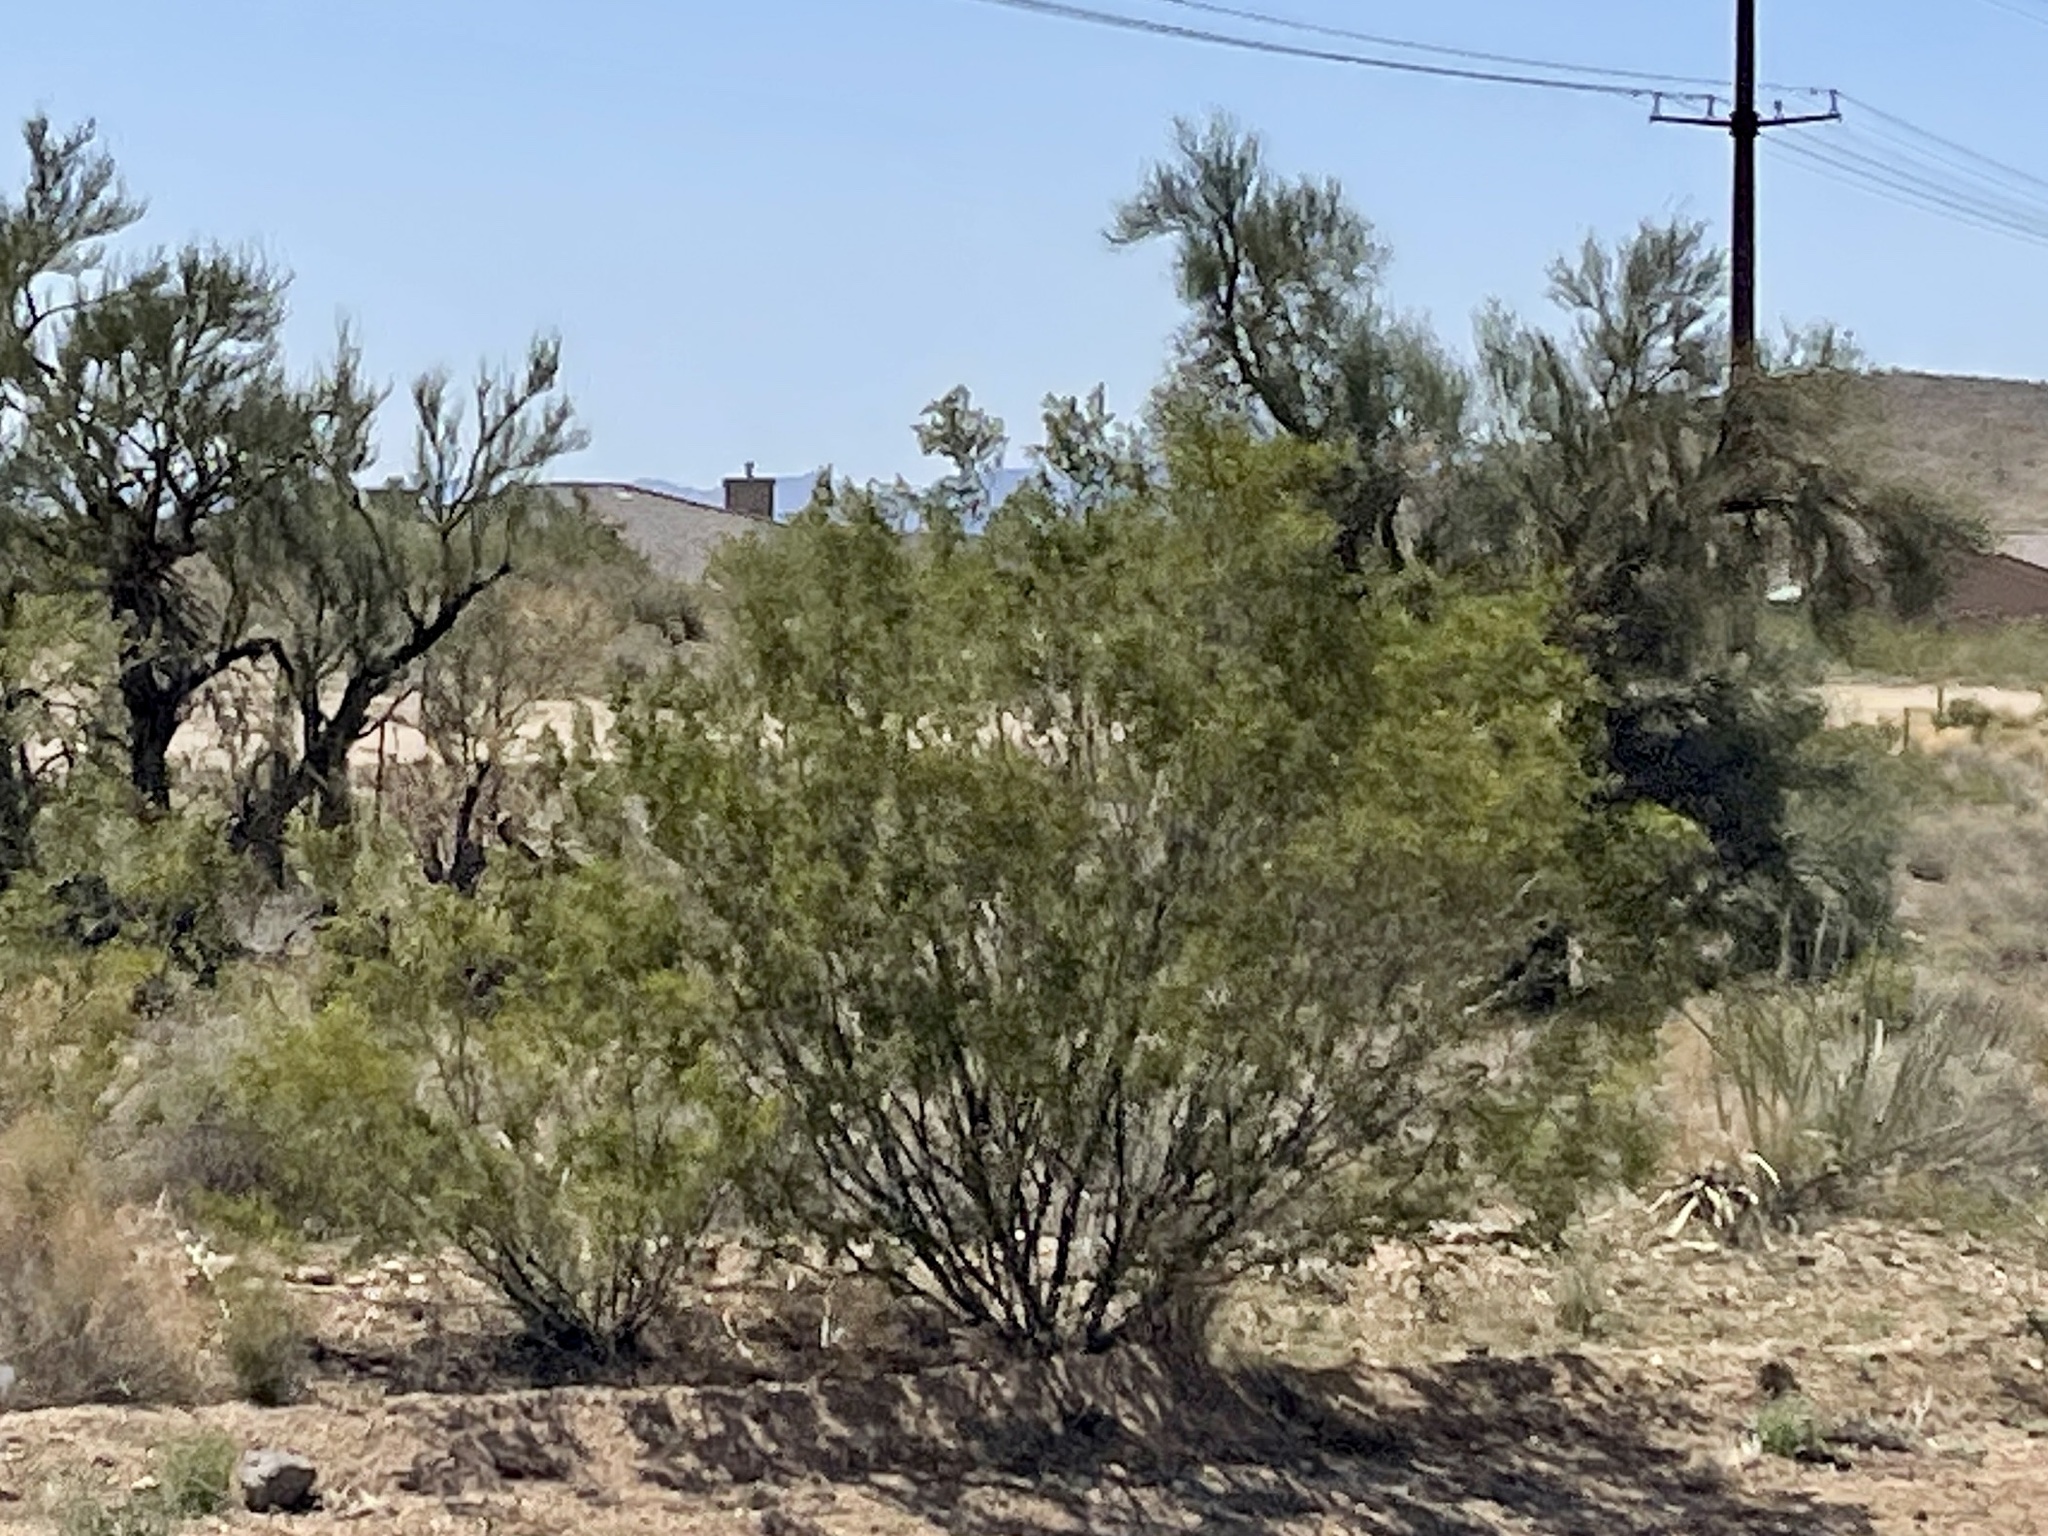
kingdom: Plantae
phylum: Tracheophyta
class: Magnoliopsida
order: Zygophyllales
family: Zygophyllaceae
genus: Larrea
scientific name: Larrea tridentata
